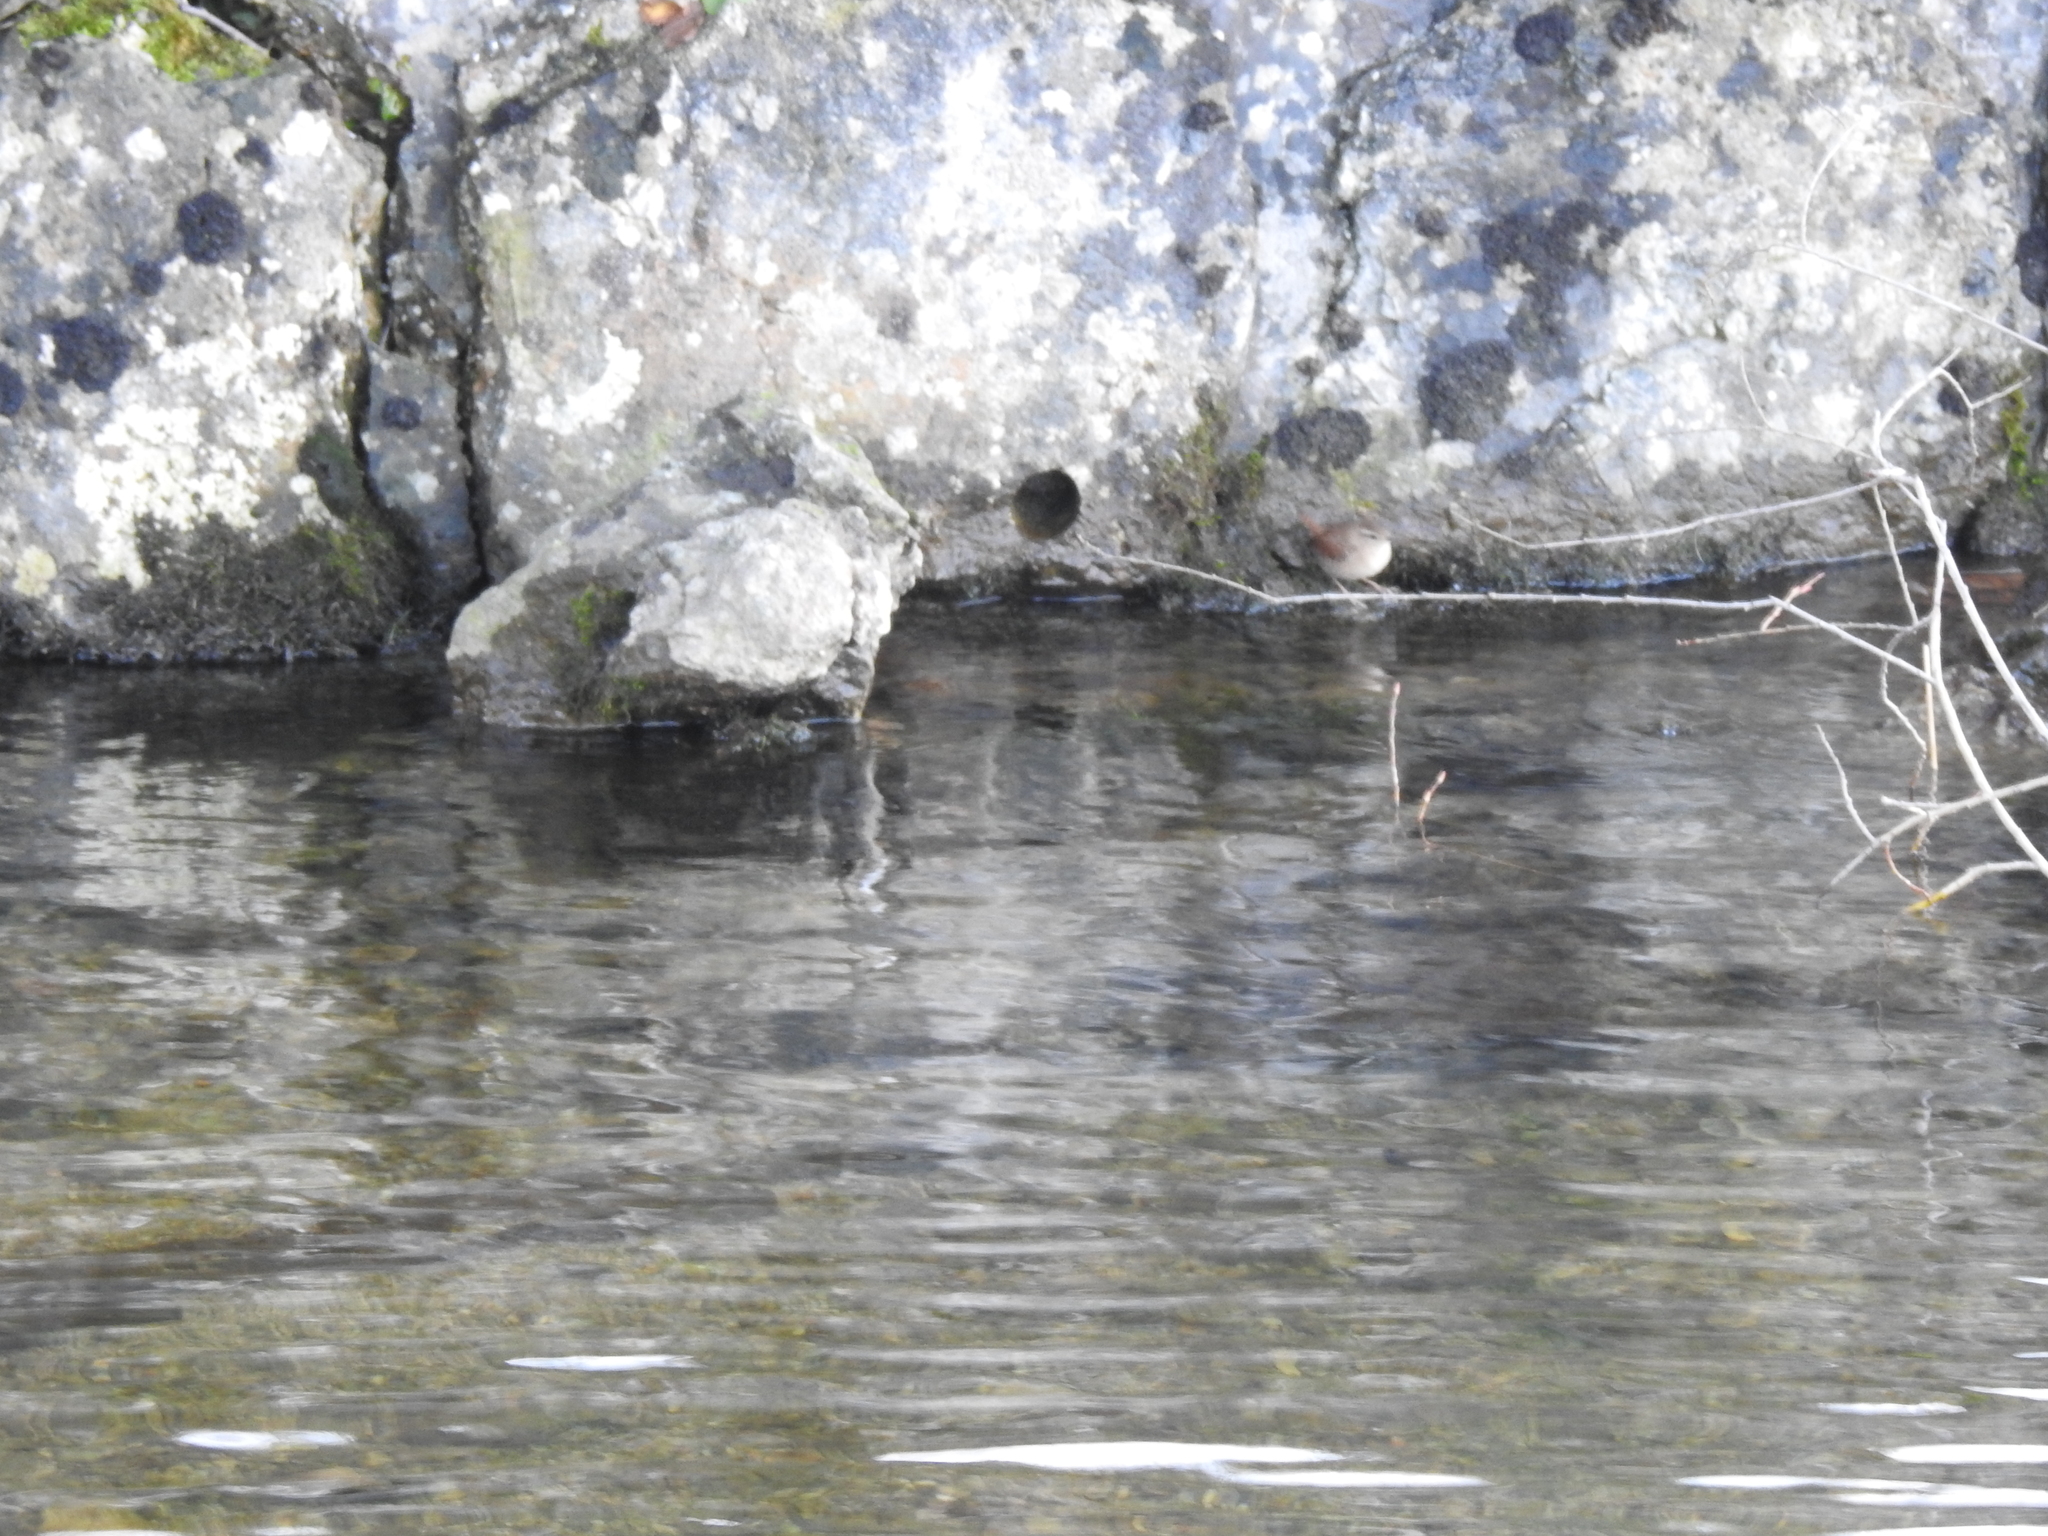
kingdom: Animalia
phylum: Chordata
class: Aves
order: Passeriformes
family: Troglodytidae
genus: Troglodytes
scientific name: Troglodytes troglodytes
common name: Eurasian wren
